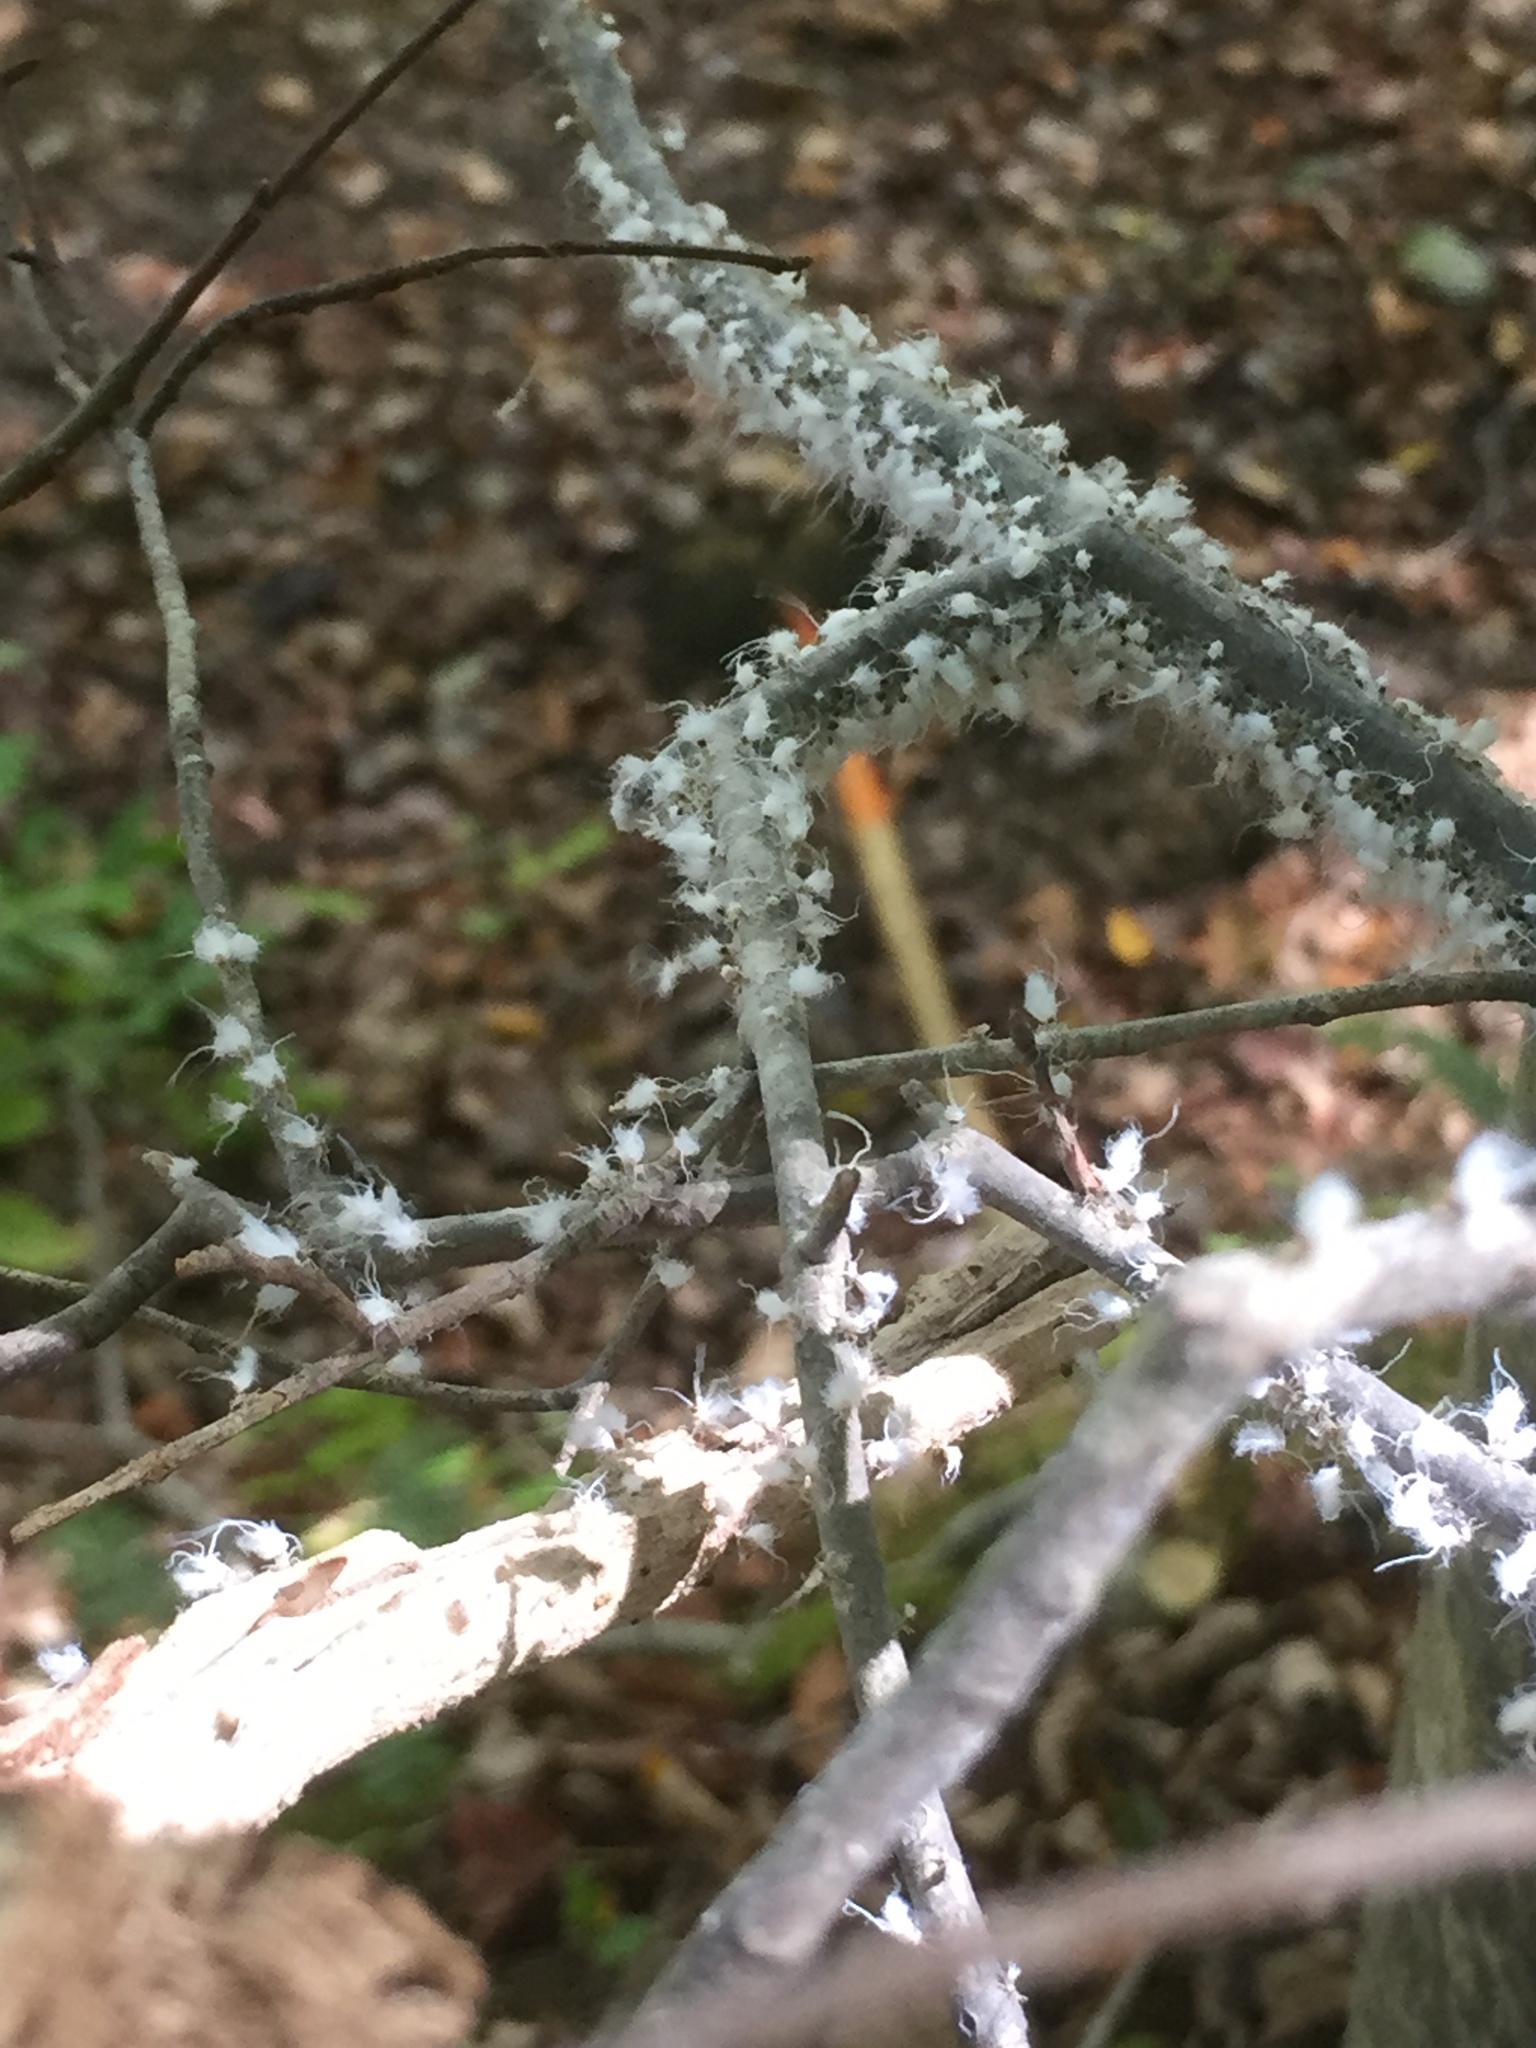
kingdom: Animalia
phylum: Arthropoda
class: Insecta
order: Hemiptera
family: Aphididae
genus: Grylloprociphilus
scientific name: Grylloprociphilus imbricator
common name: Beech blight aphid
